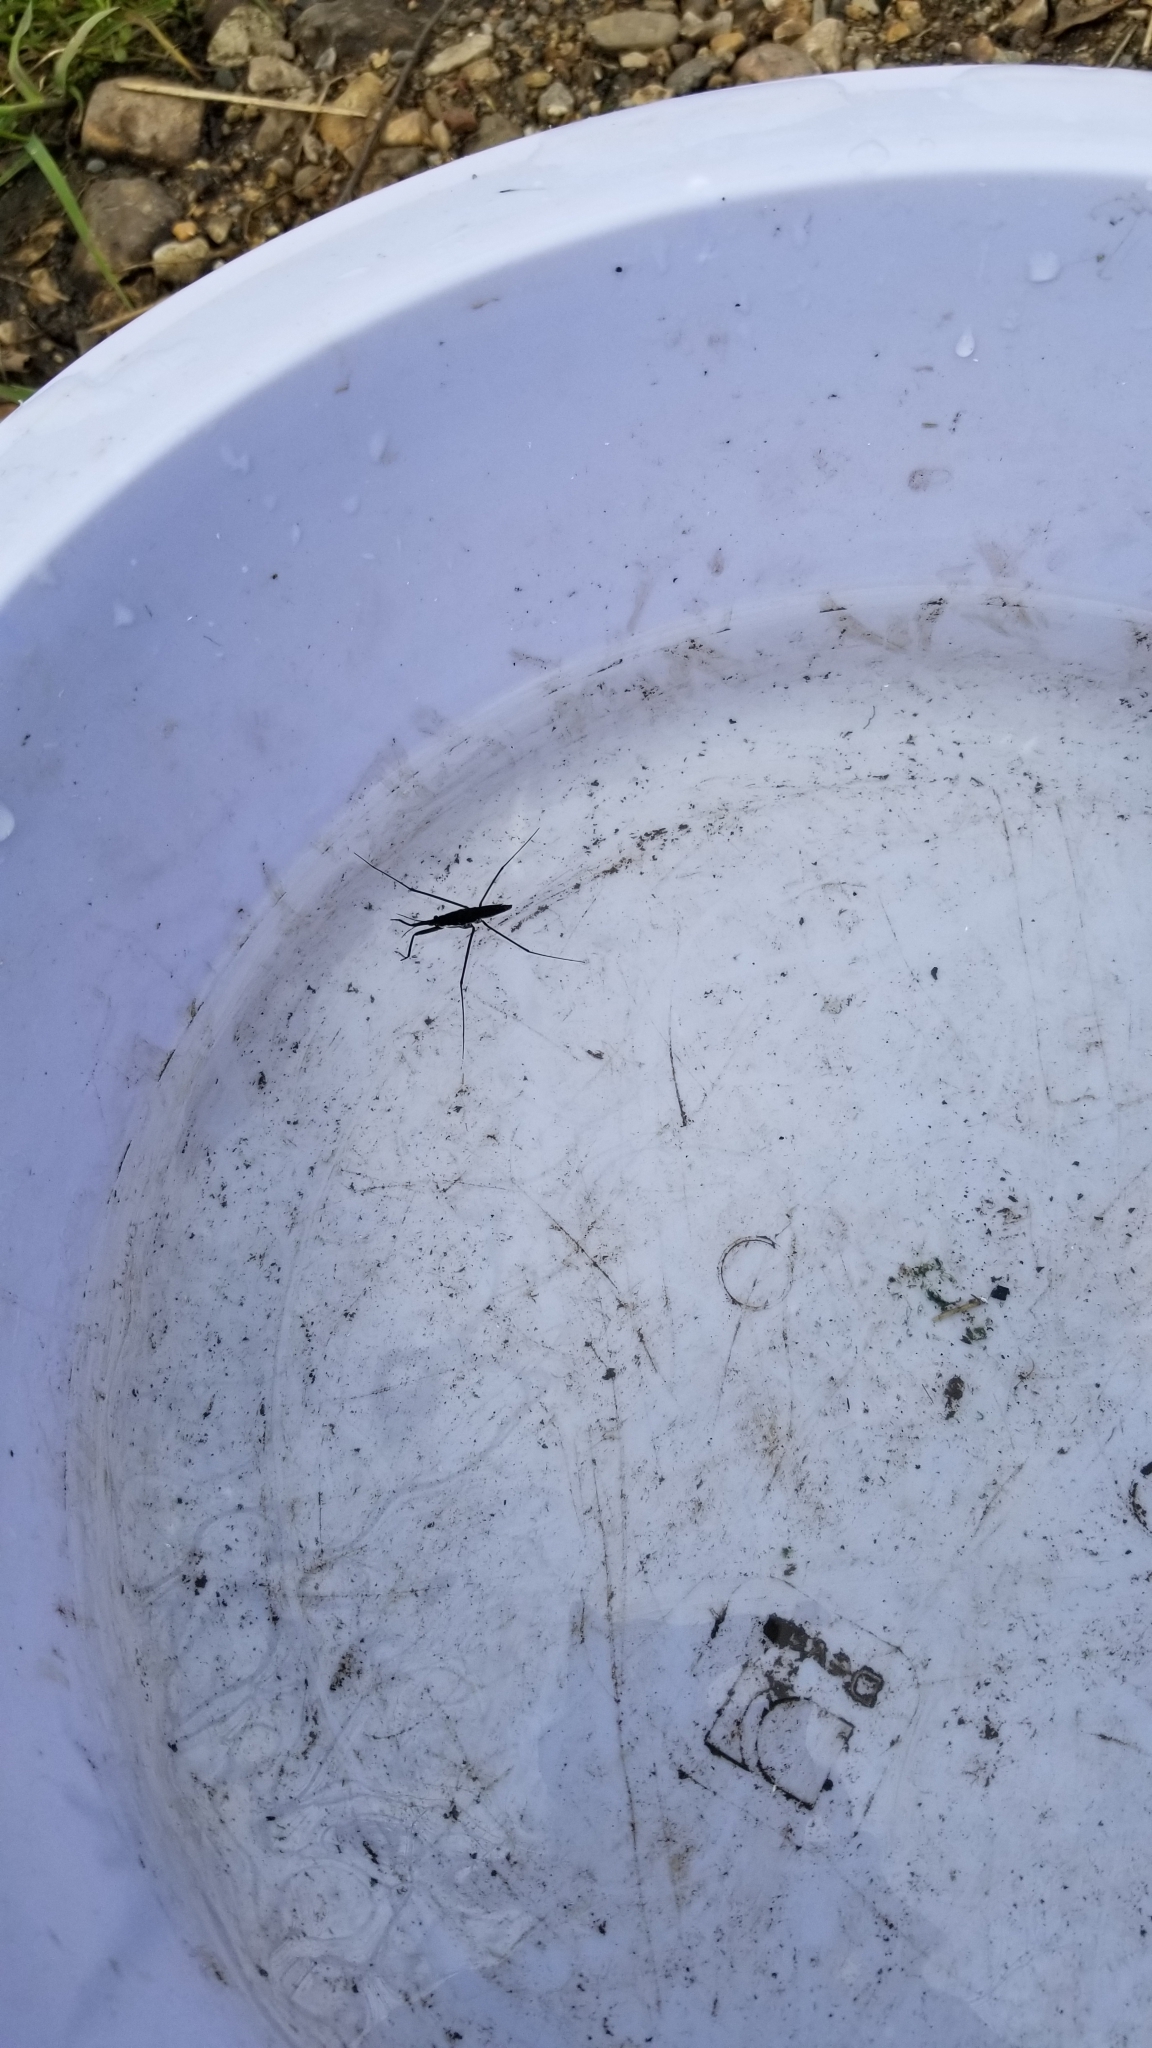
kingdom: Animalia
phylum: Arthropoda
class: Insecta
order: Hemiptera
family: Gerridae
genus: Aquarius
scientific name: Aquarius remigis
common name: Common water strider
